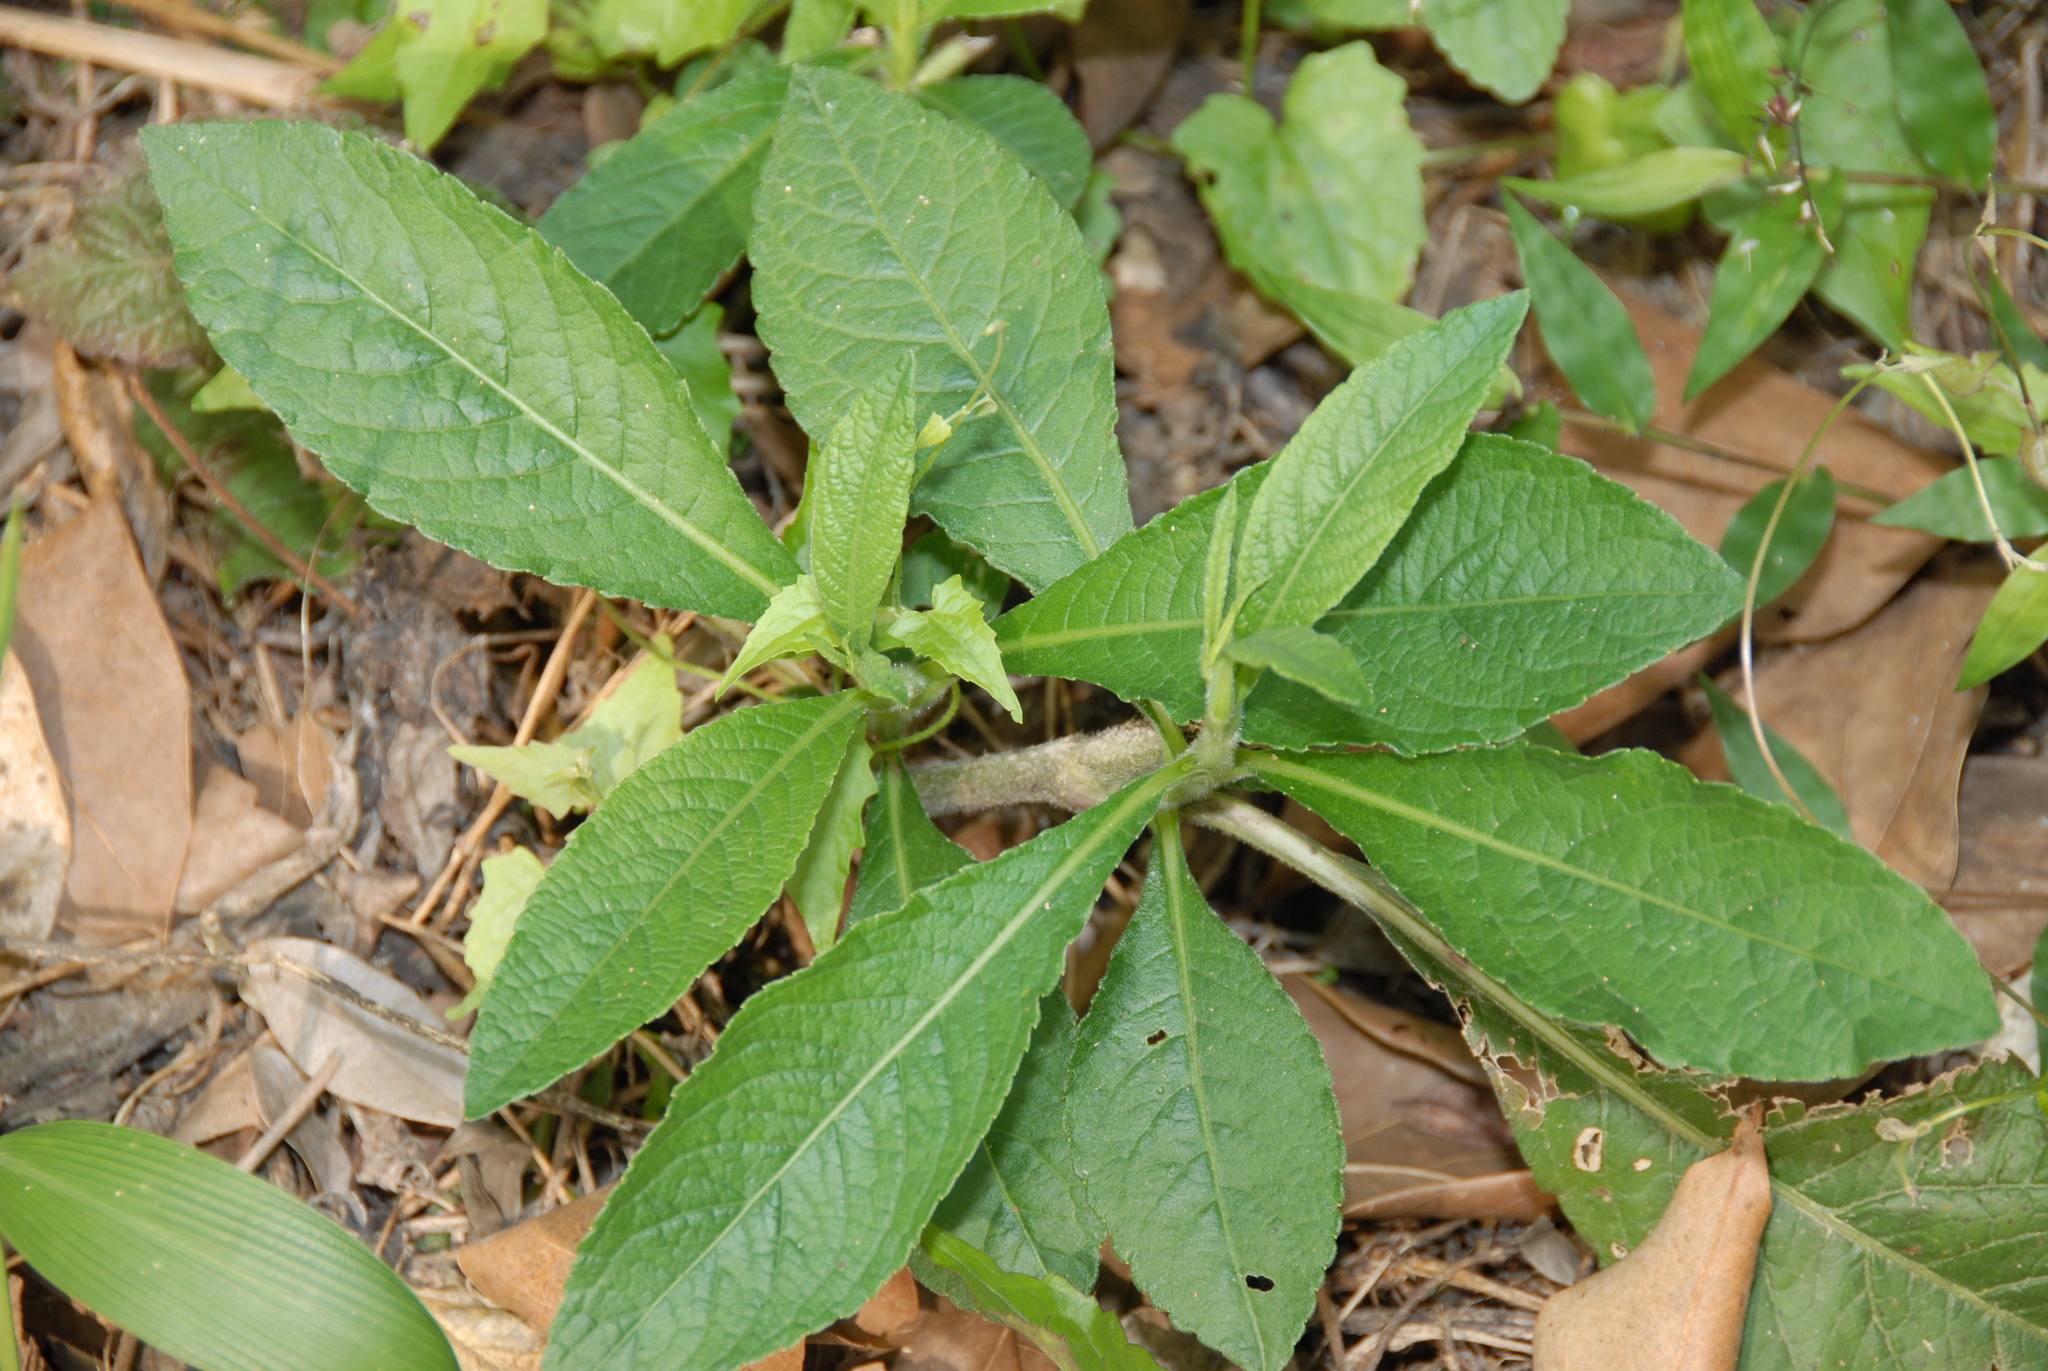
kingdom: Plantae
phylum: Tracheophyta
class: Magnoliopsida
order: Asterales
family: Asteraceae
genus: Elephantopus
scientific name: Elephantopus mollis
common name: Soft elephantsfoot
